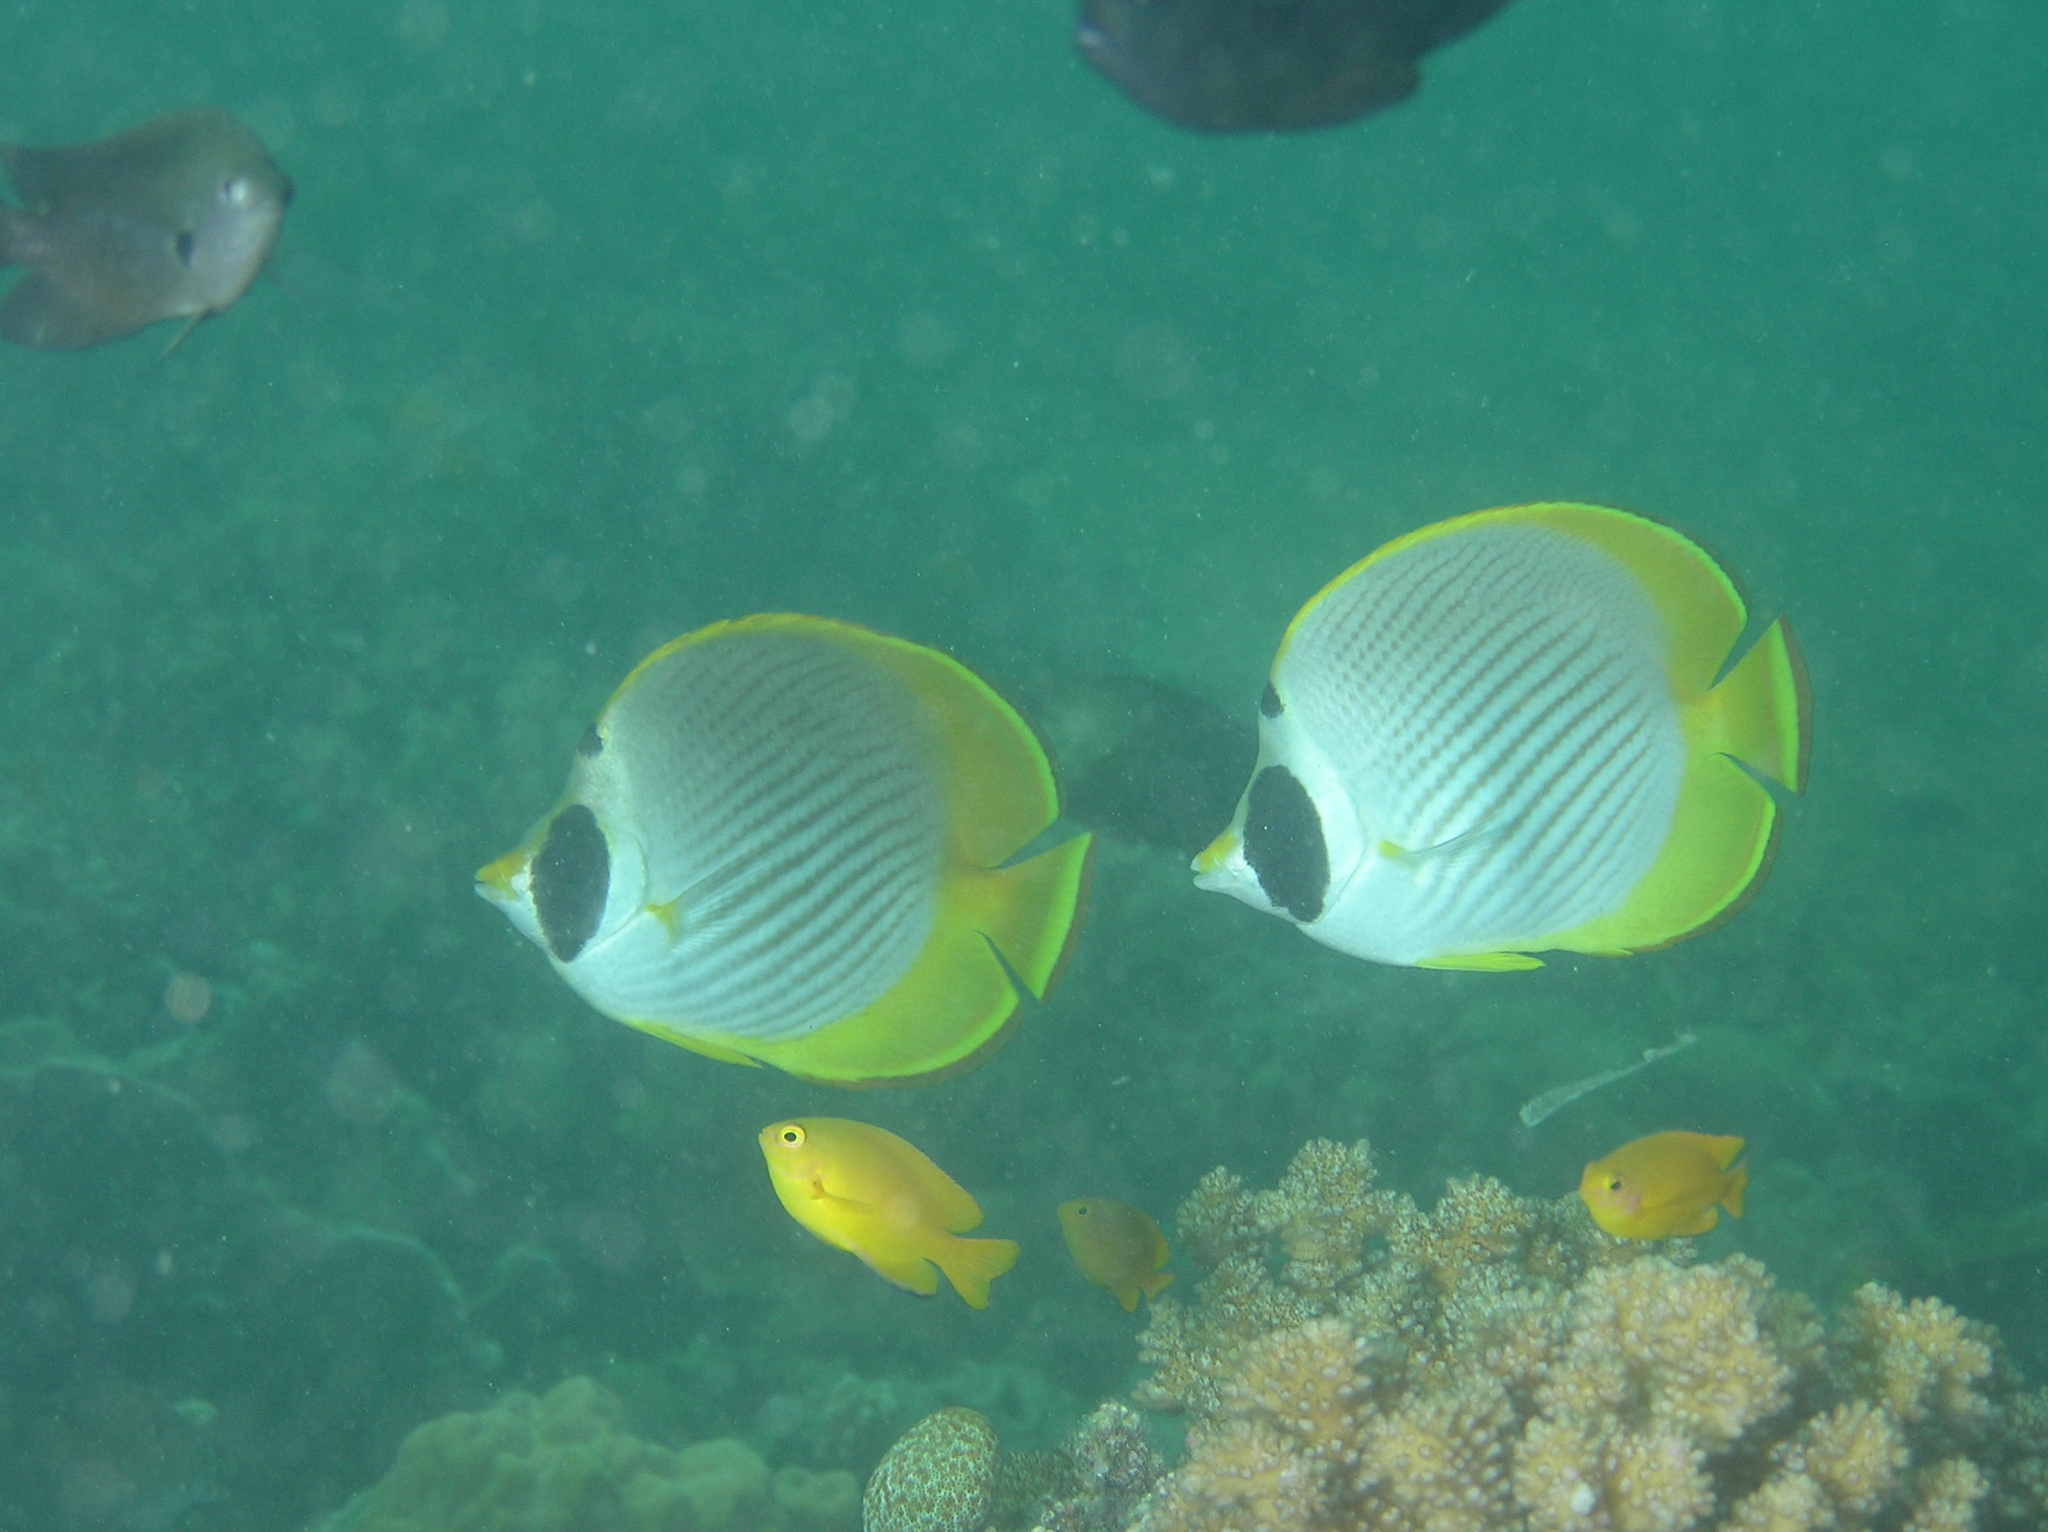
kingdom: Animalia
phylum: Chordata
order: Perciformes
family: Chaetodontidae
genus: Chaetodon
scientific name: Chaetodon adiergastos
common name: Eye-patch butterflyfish
